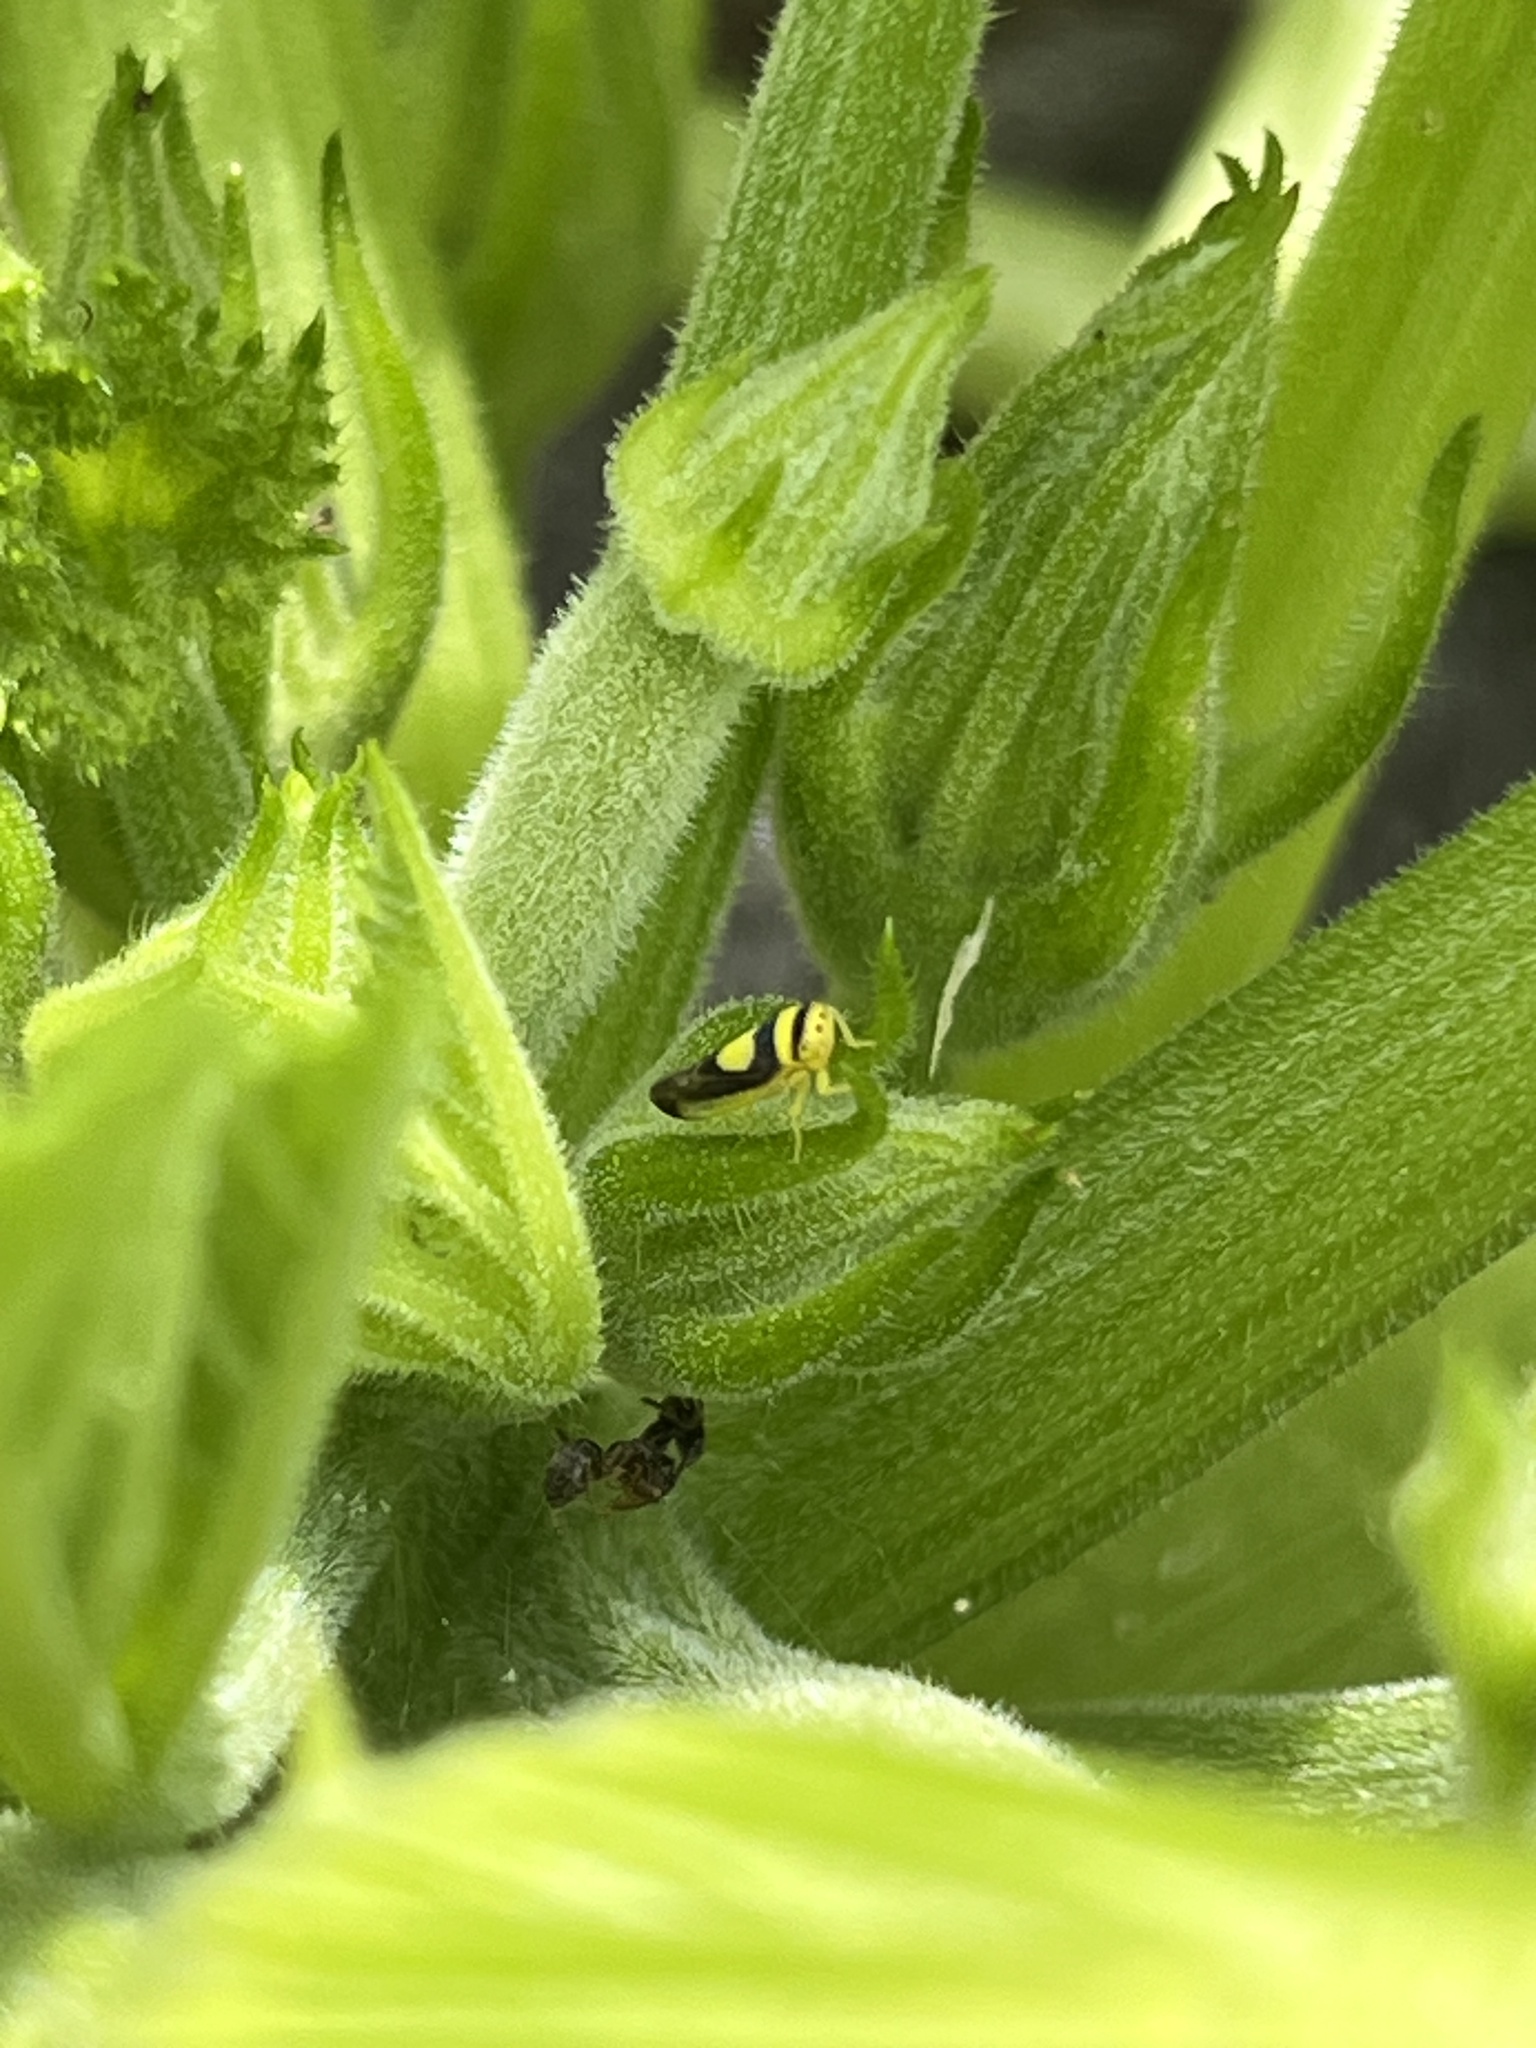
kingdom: Animalia
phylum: Arthropoda
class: Insecta
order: Hemiptera
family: Cicadellidae
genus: Colladonus
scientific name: Colladonus clitellarius
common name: The saddleback leafhopper
